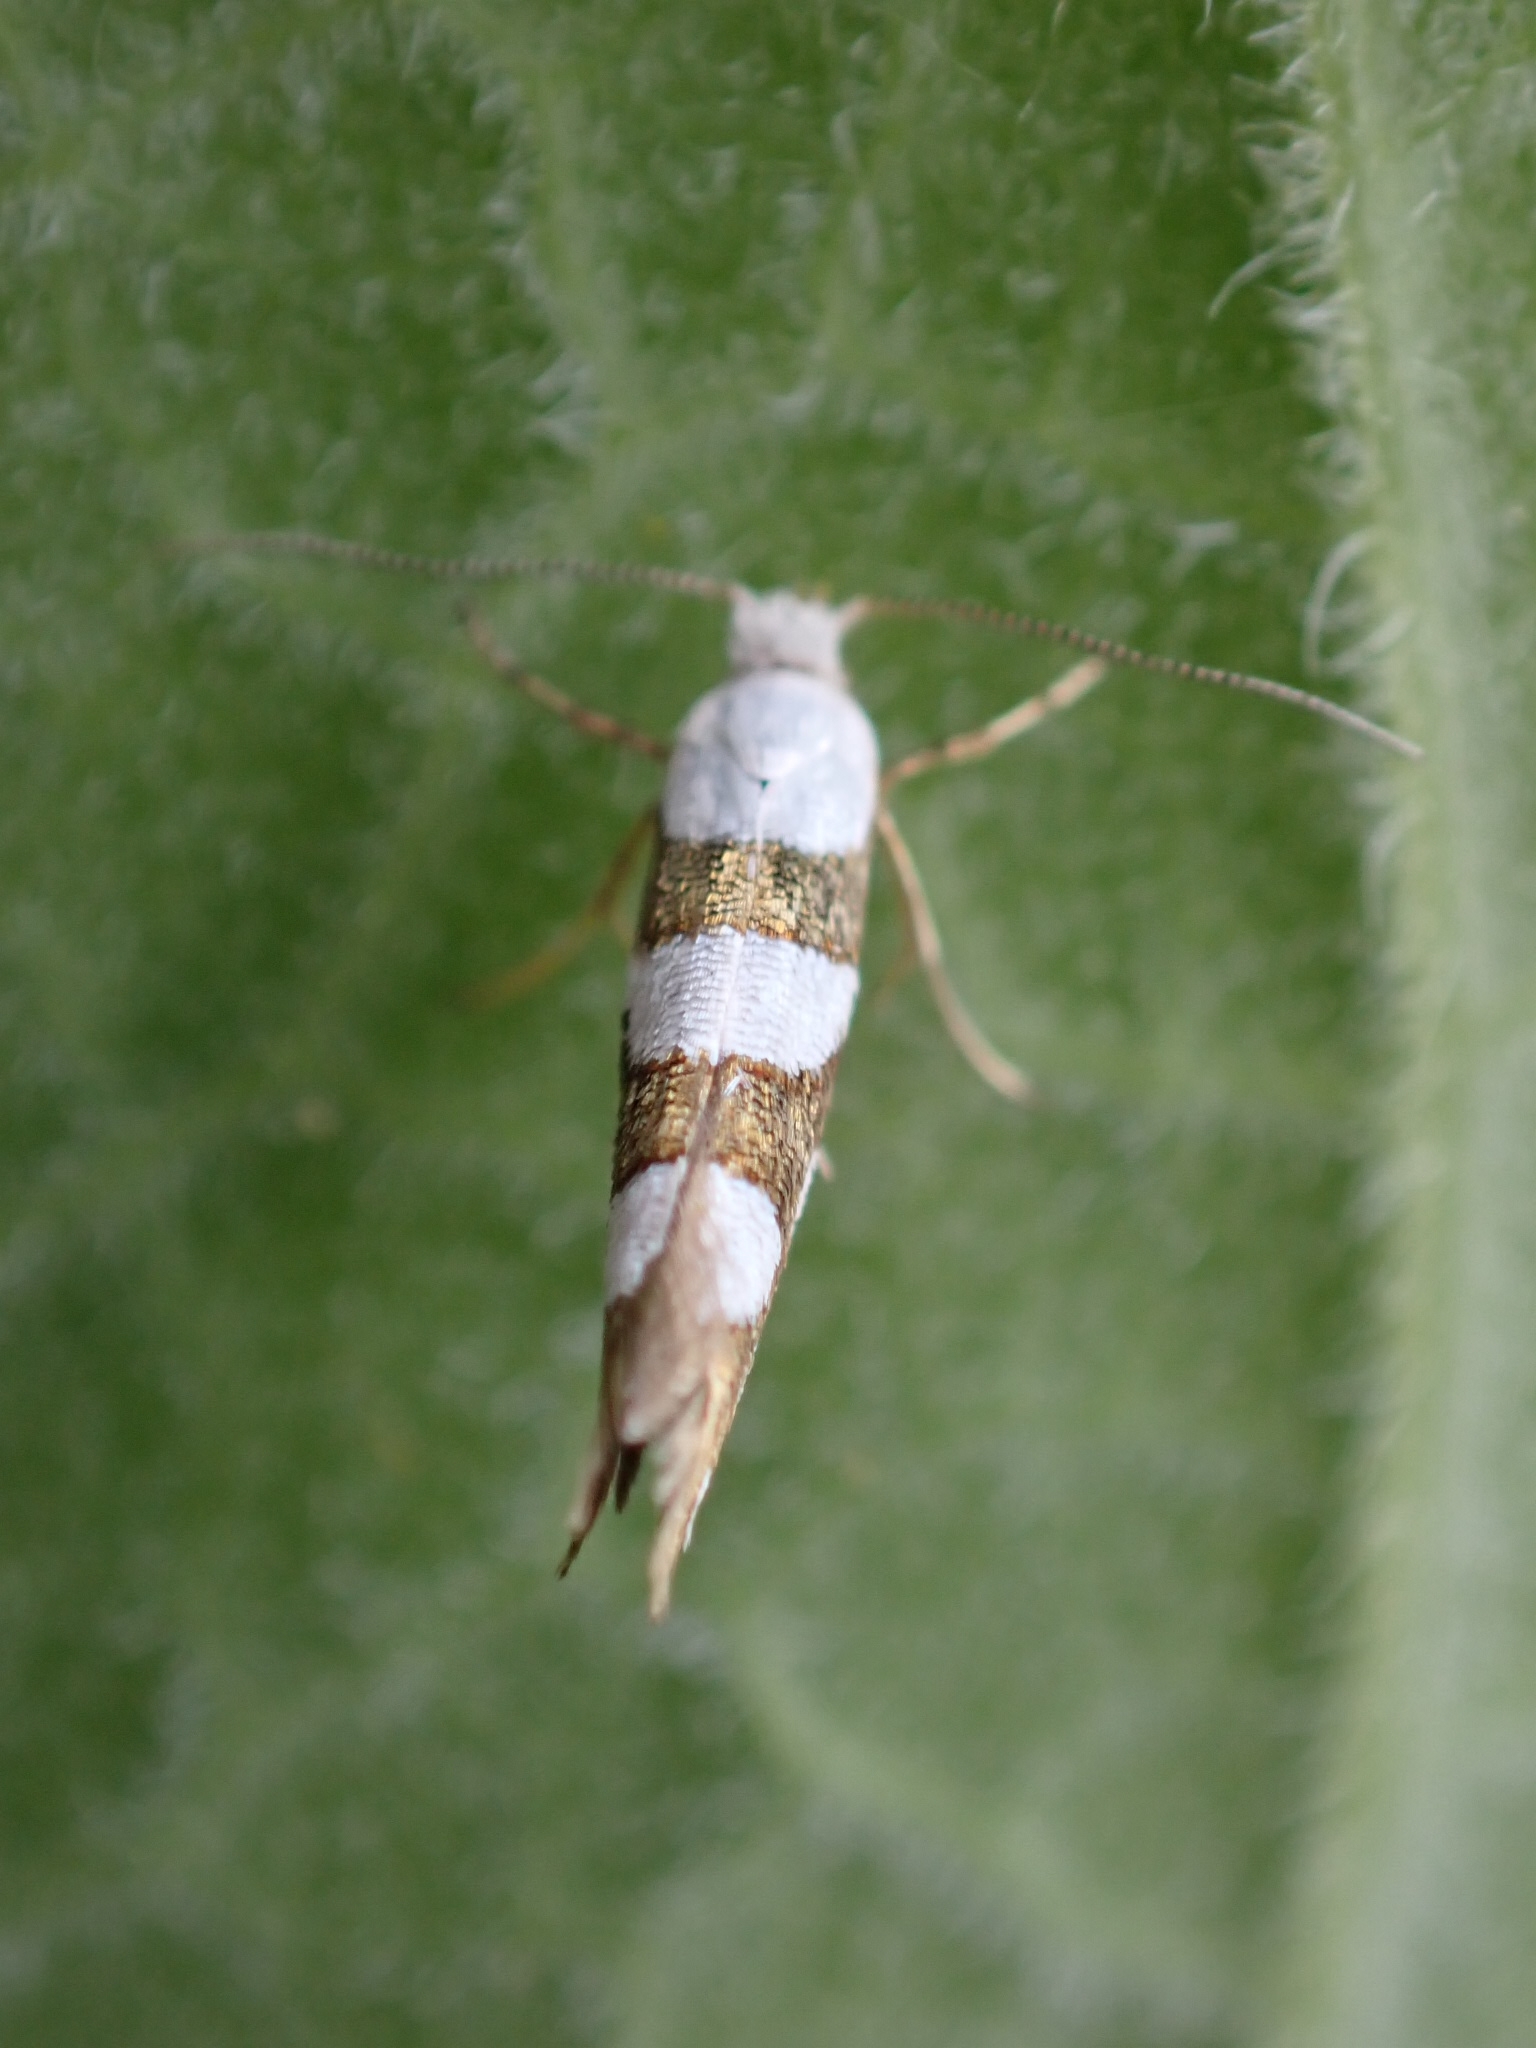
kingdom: Animalia
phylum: Arthropoda
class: Insecta
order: Lepidoptera
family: Argyresthiidae
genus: Argyresthia
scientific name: Argyresthia brockeella
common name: Gold-ribbon argent
